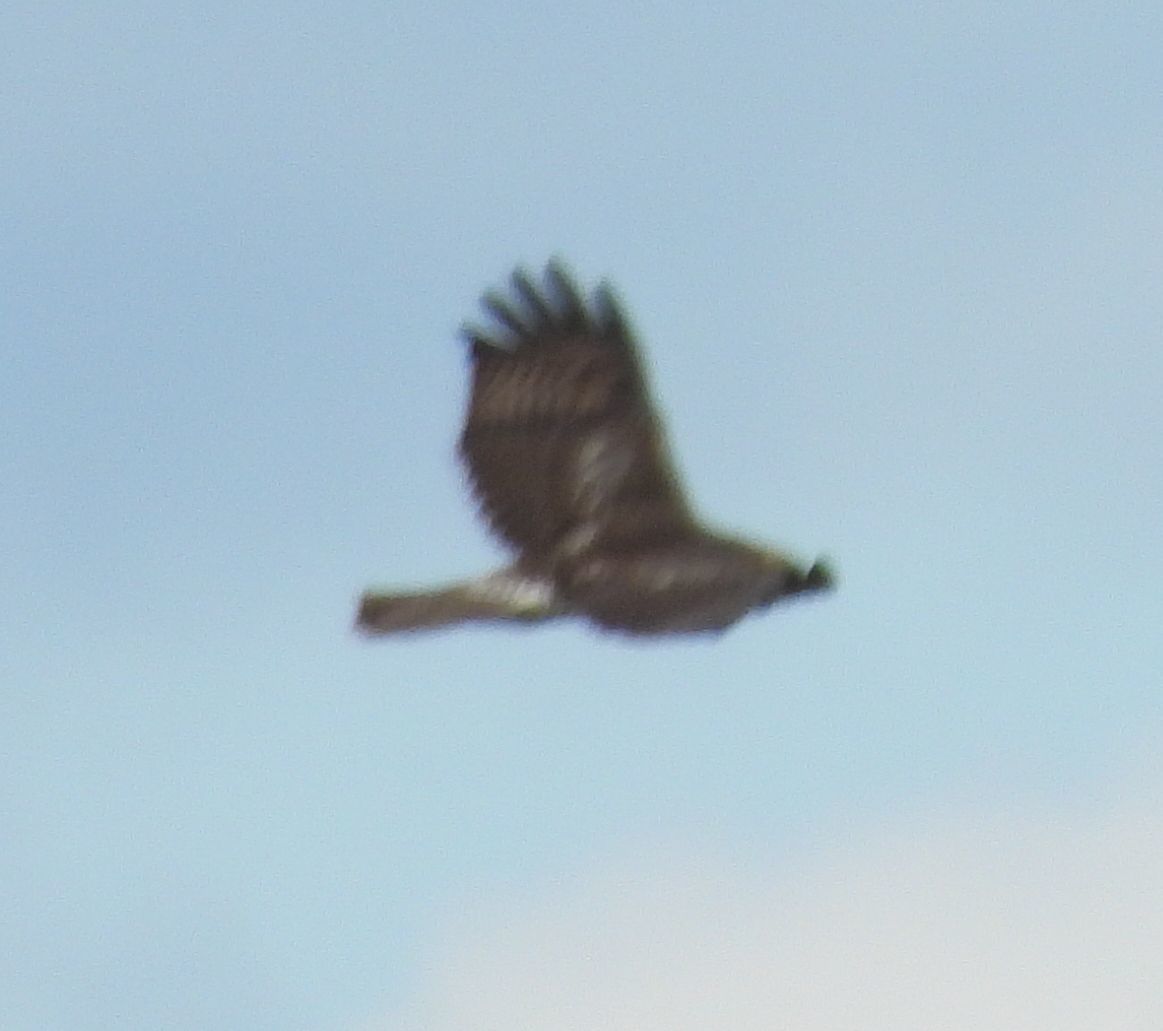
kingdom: Animalia
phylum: Chordata
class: Aves
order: Accipitriformes
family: Accipitridae
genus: Buteo
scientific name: Buteo jamaicensis
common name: Red-tailed hawk
